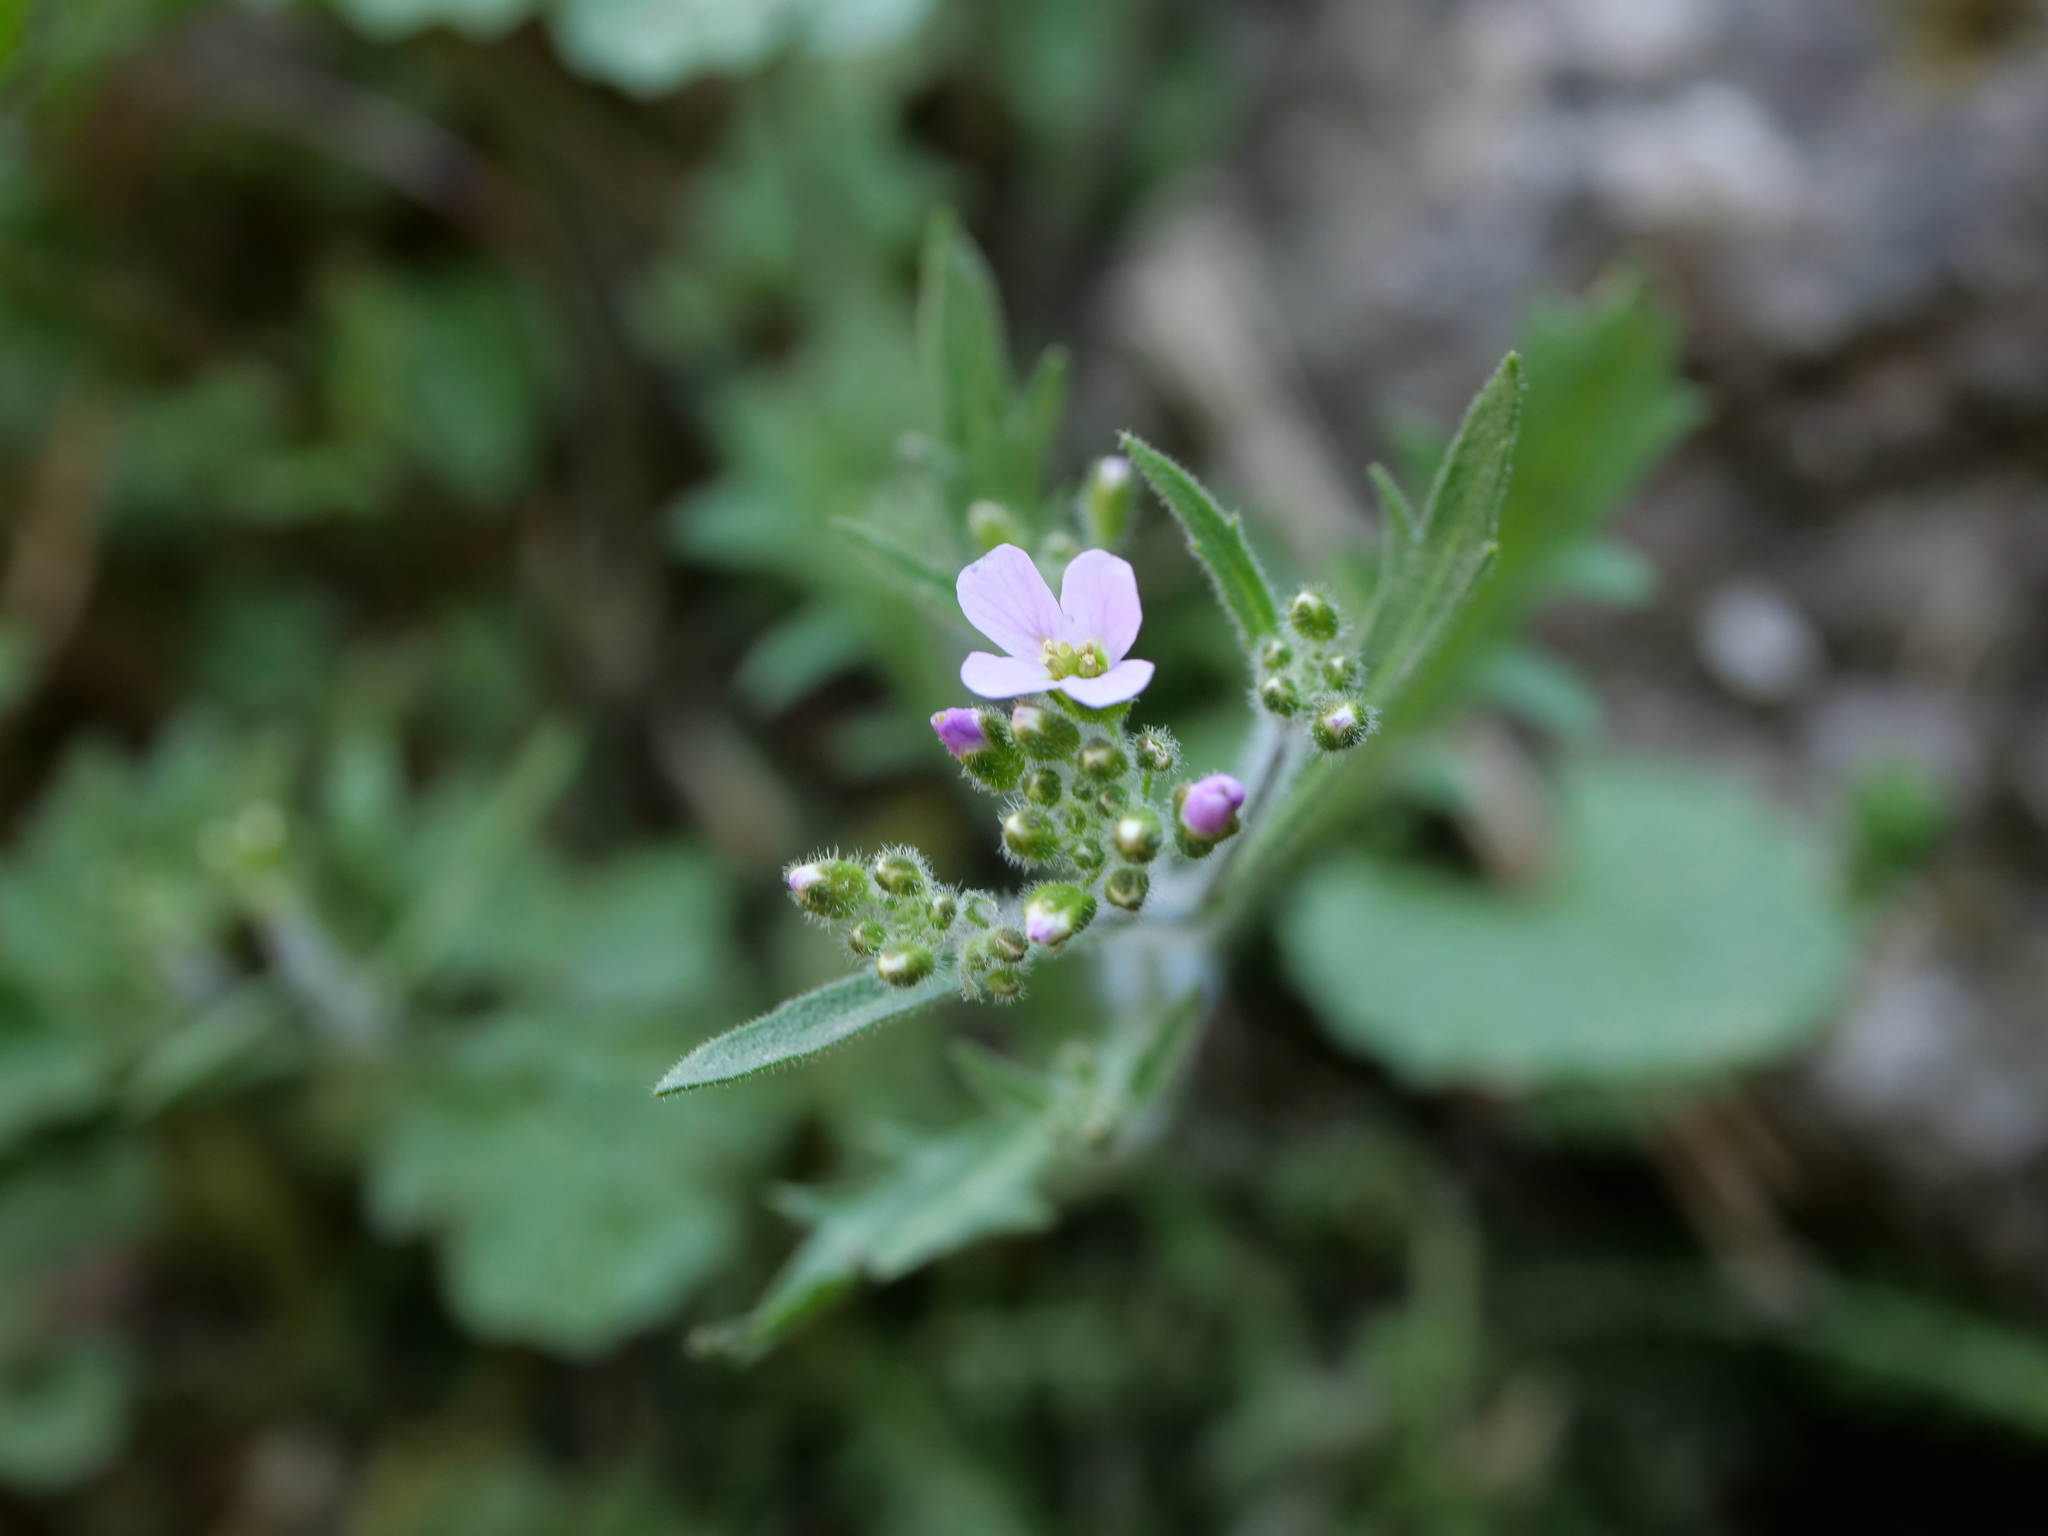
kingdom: Plantae
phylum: Tracheophyta
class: Magnoliopsida
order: Brassicales
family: Brassicaceae
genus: Arabidopsis
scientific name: Arabidopsis arenosa
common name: Sand rock-cress
